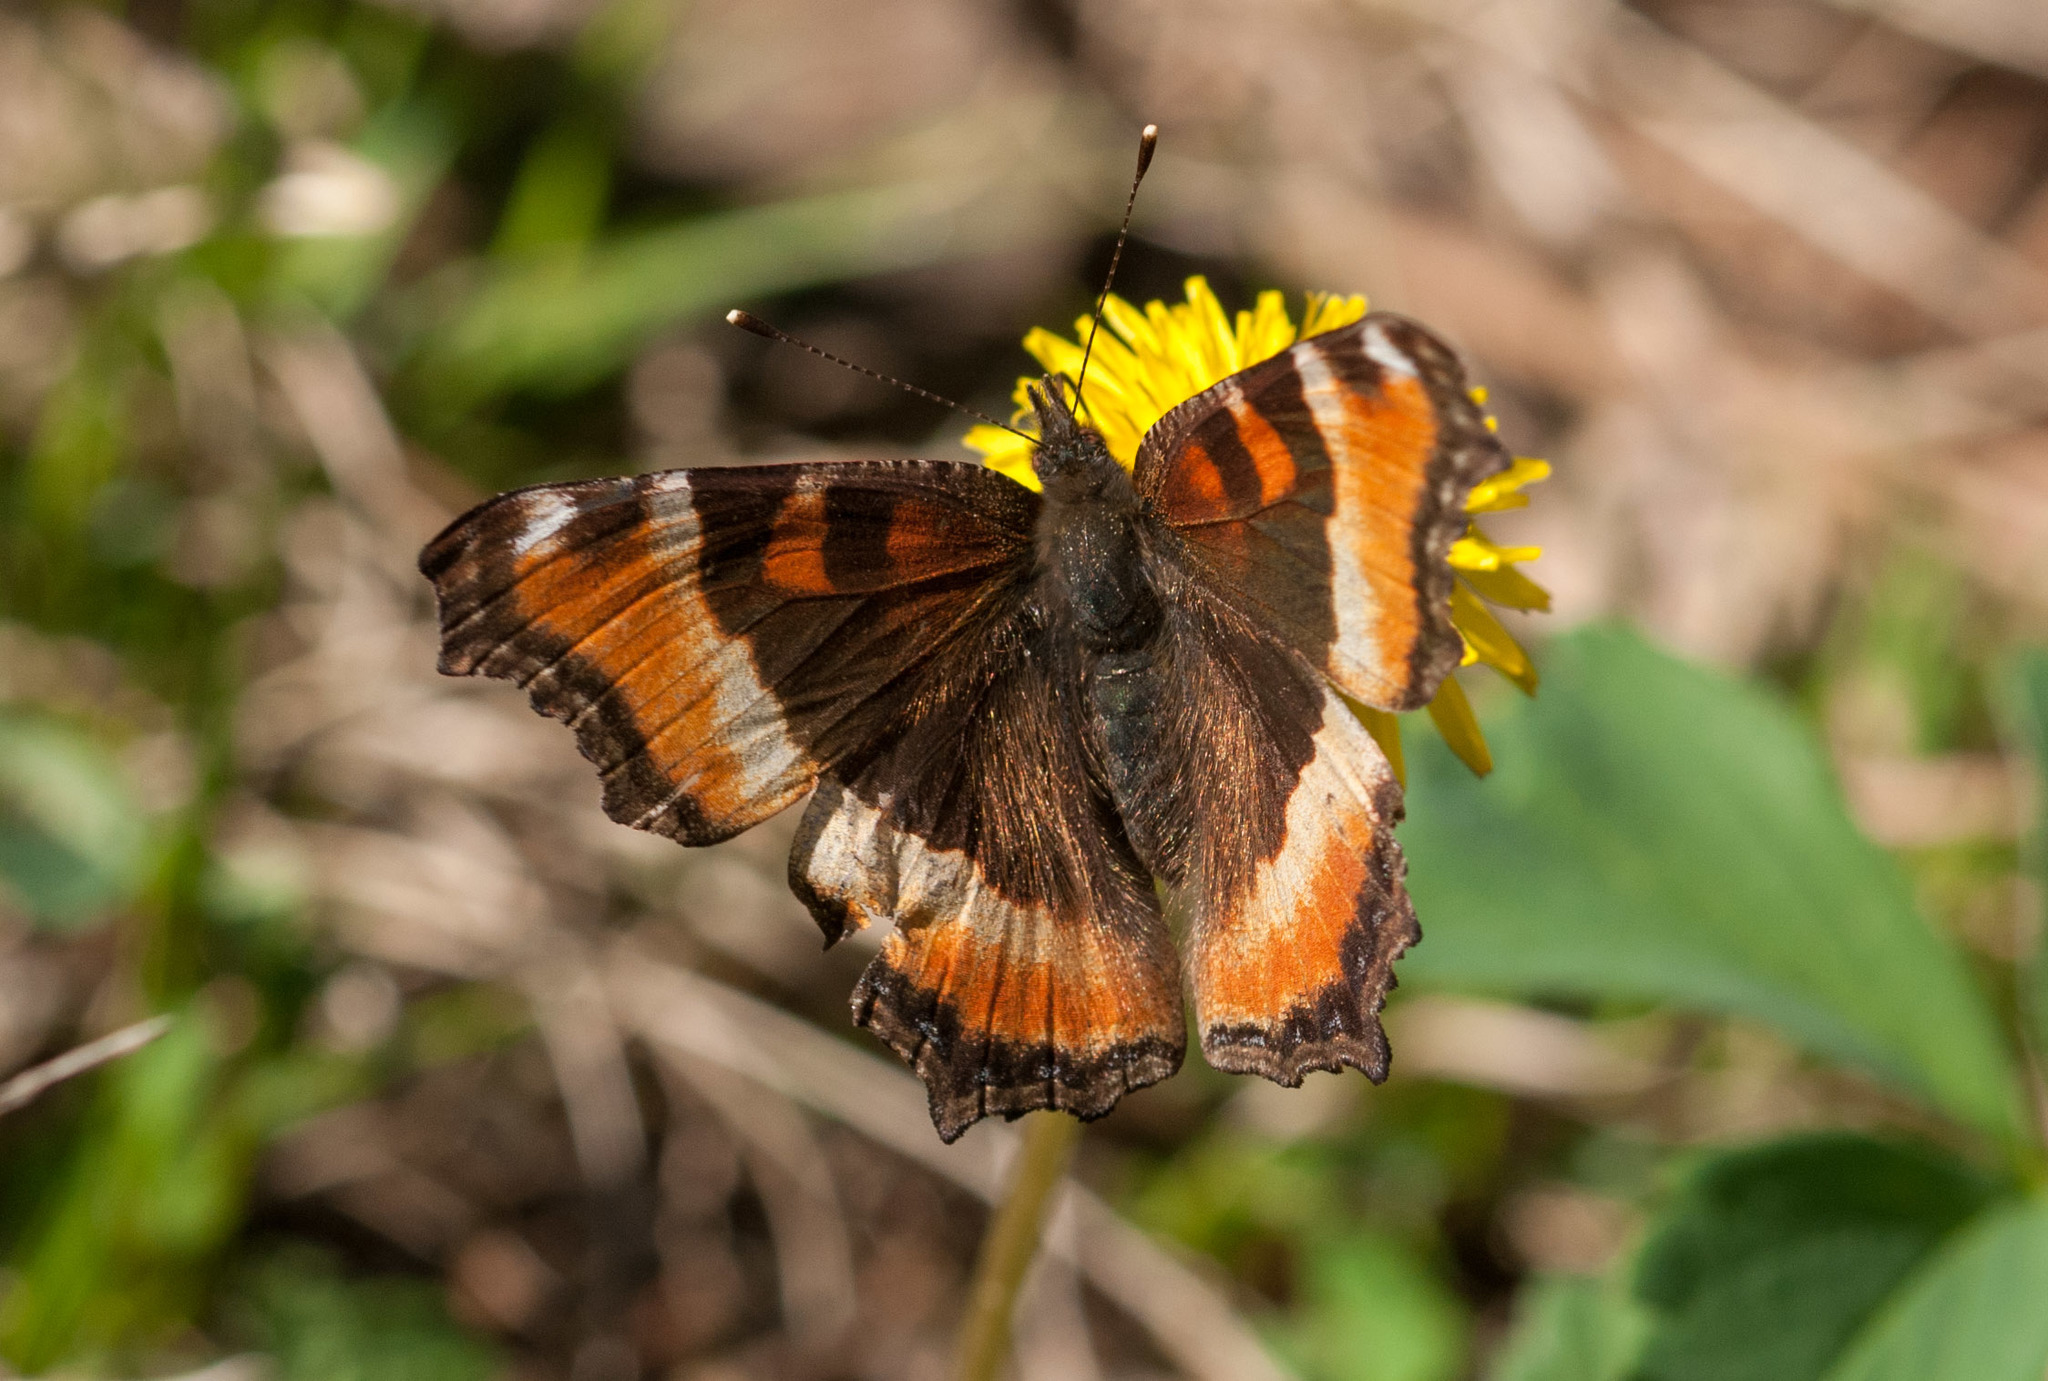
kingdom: Animalia
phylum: Arthropoda
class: Insecta
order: Lepidoptera
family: Nymphalidae
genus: Aglais
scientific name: Aglais milberti
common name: Milbert's tortoiseshell
